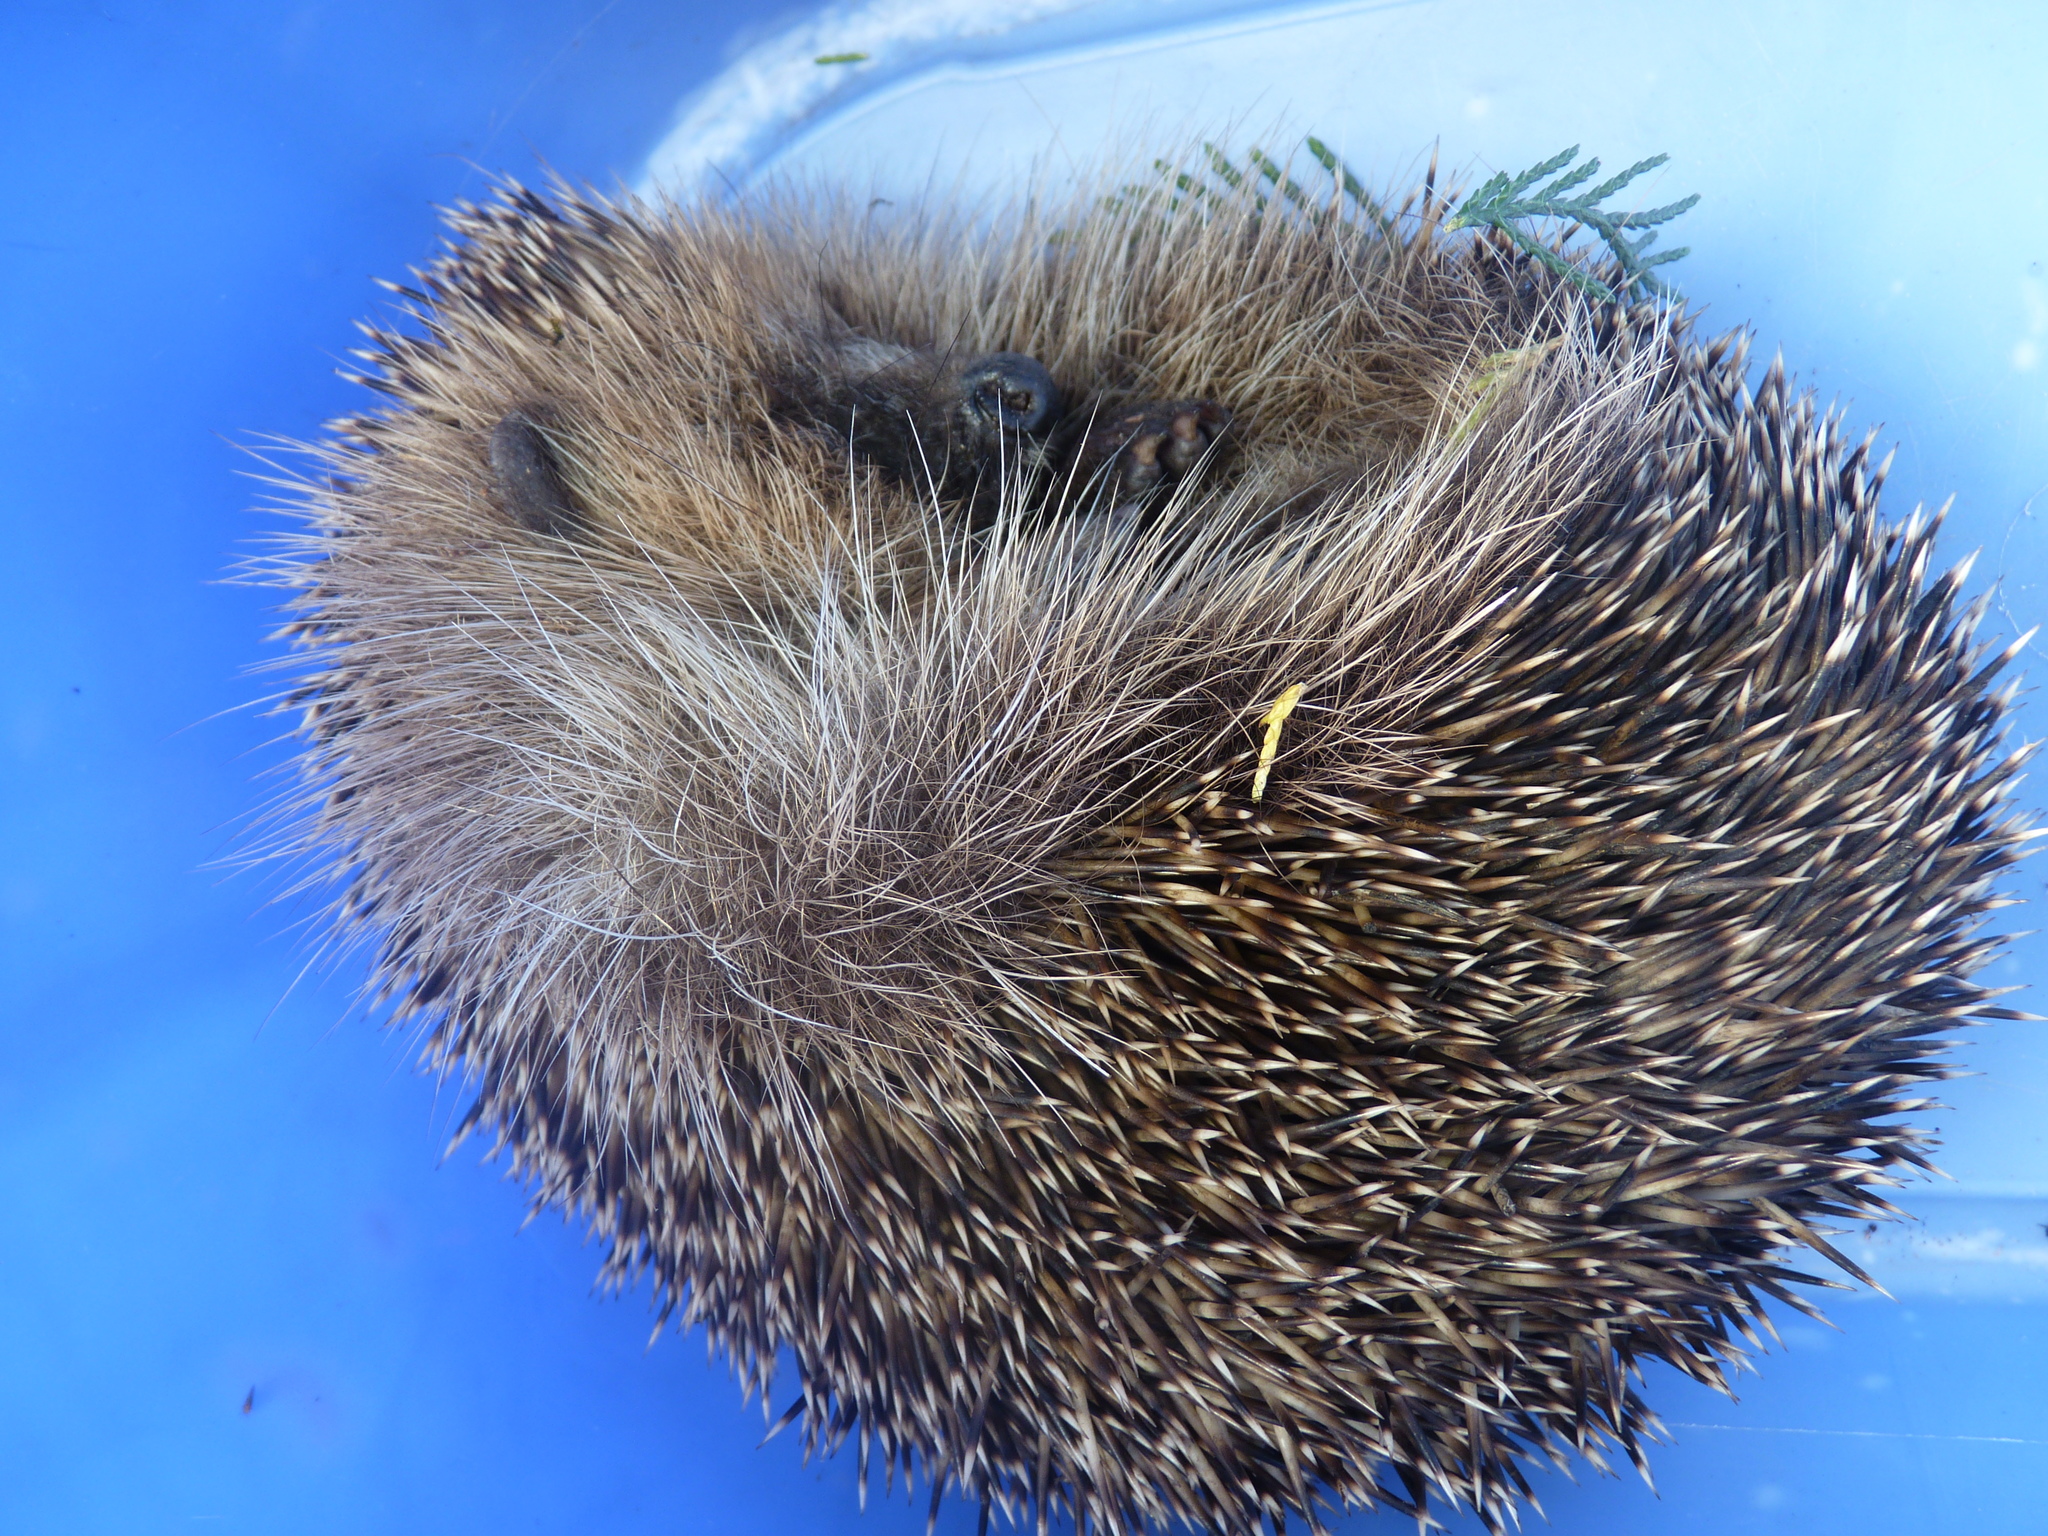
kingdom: Animalia
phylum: Chordata
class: Mammalia
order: Erinaceomorpha
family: Erinaceidae
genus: Erinaceus
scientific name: Erinaceus europaeus
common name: West european hedgehog
